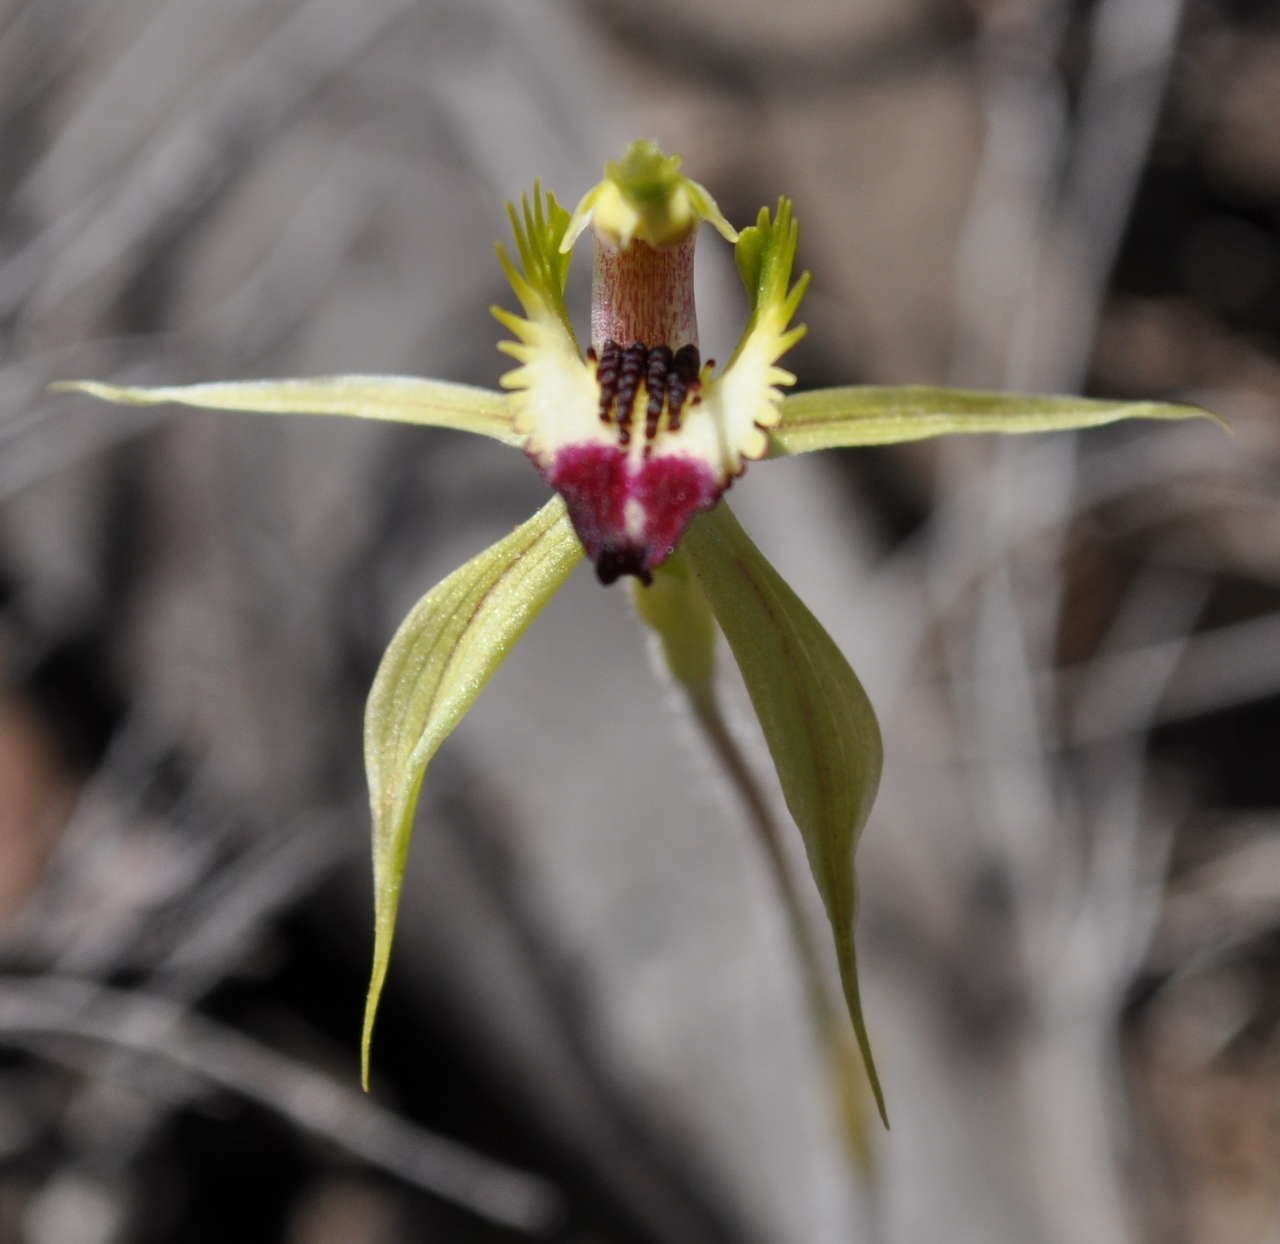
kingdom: Plantae
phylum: Tracheophyta
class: Liliopsida
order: Asparagales
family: Orchidaceae
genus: Caladenia
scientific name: Caladenia stricta
